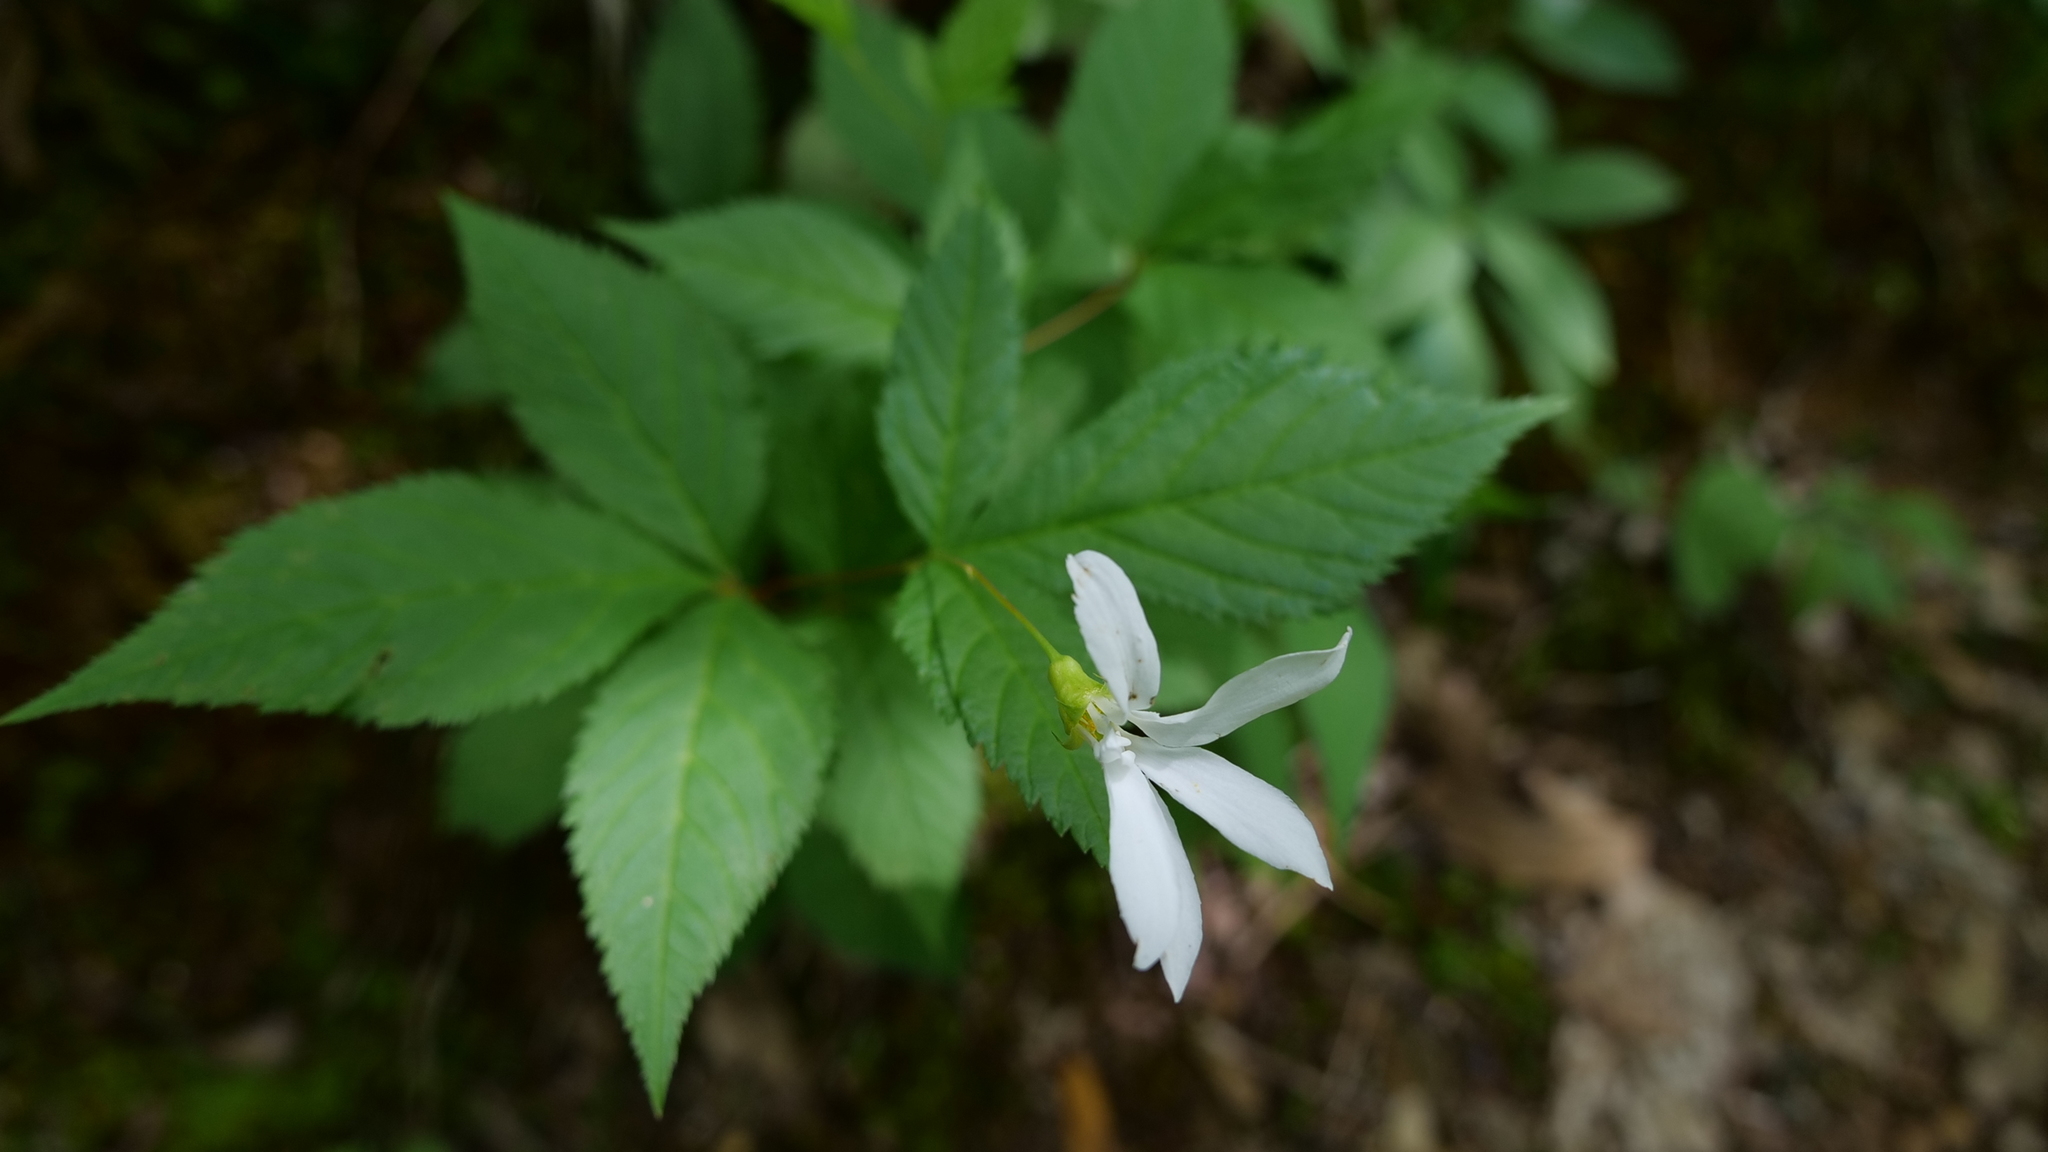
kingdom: Plantae
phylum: Tracheophyta
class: Magnoliopsida
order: Rosales
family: Rosaceae
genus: Gillenia
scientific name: Gillenia trifoliata
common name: Bowman's-root
